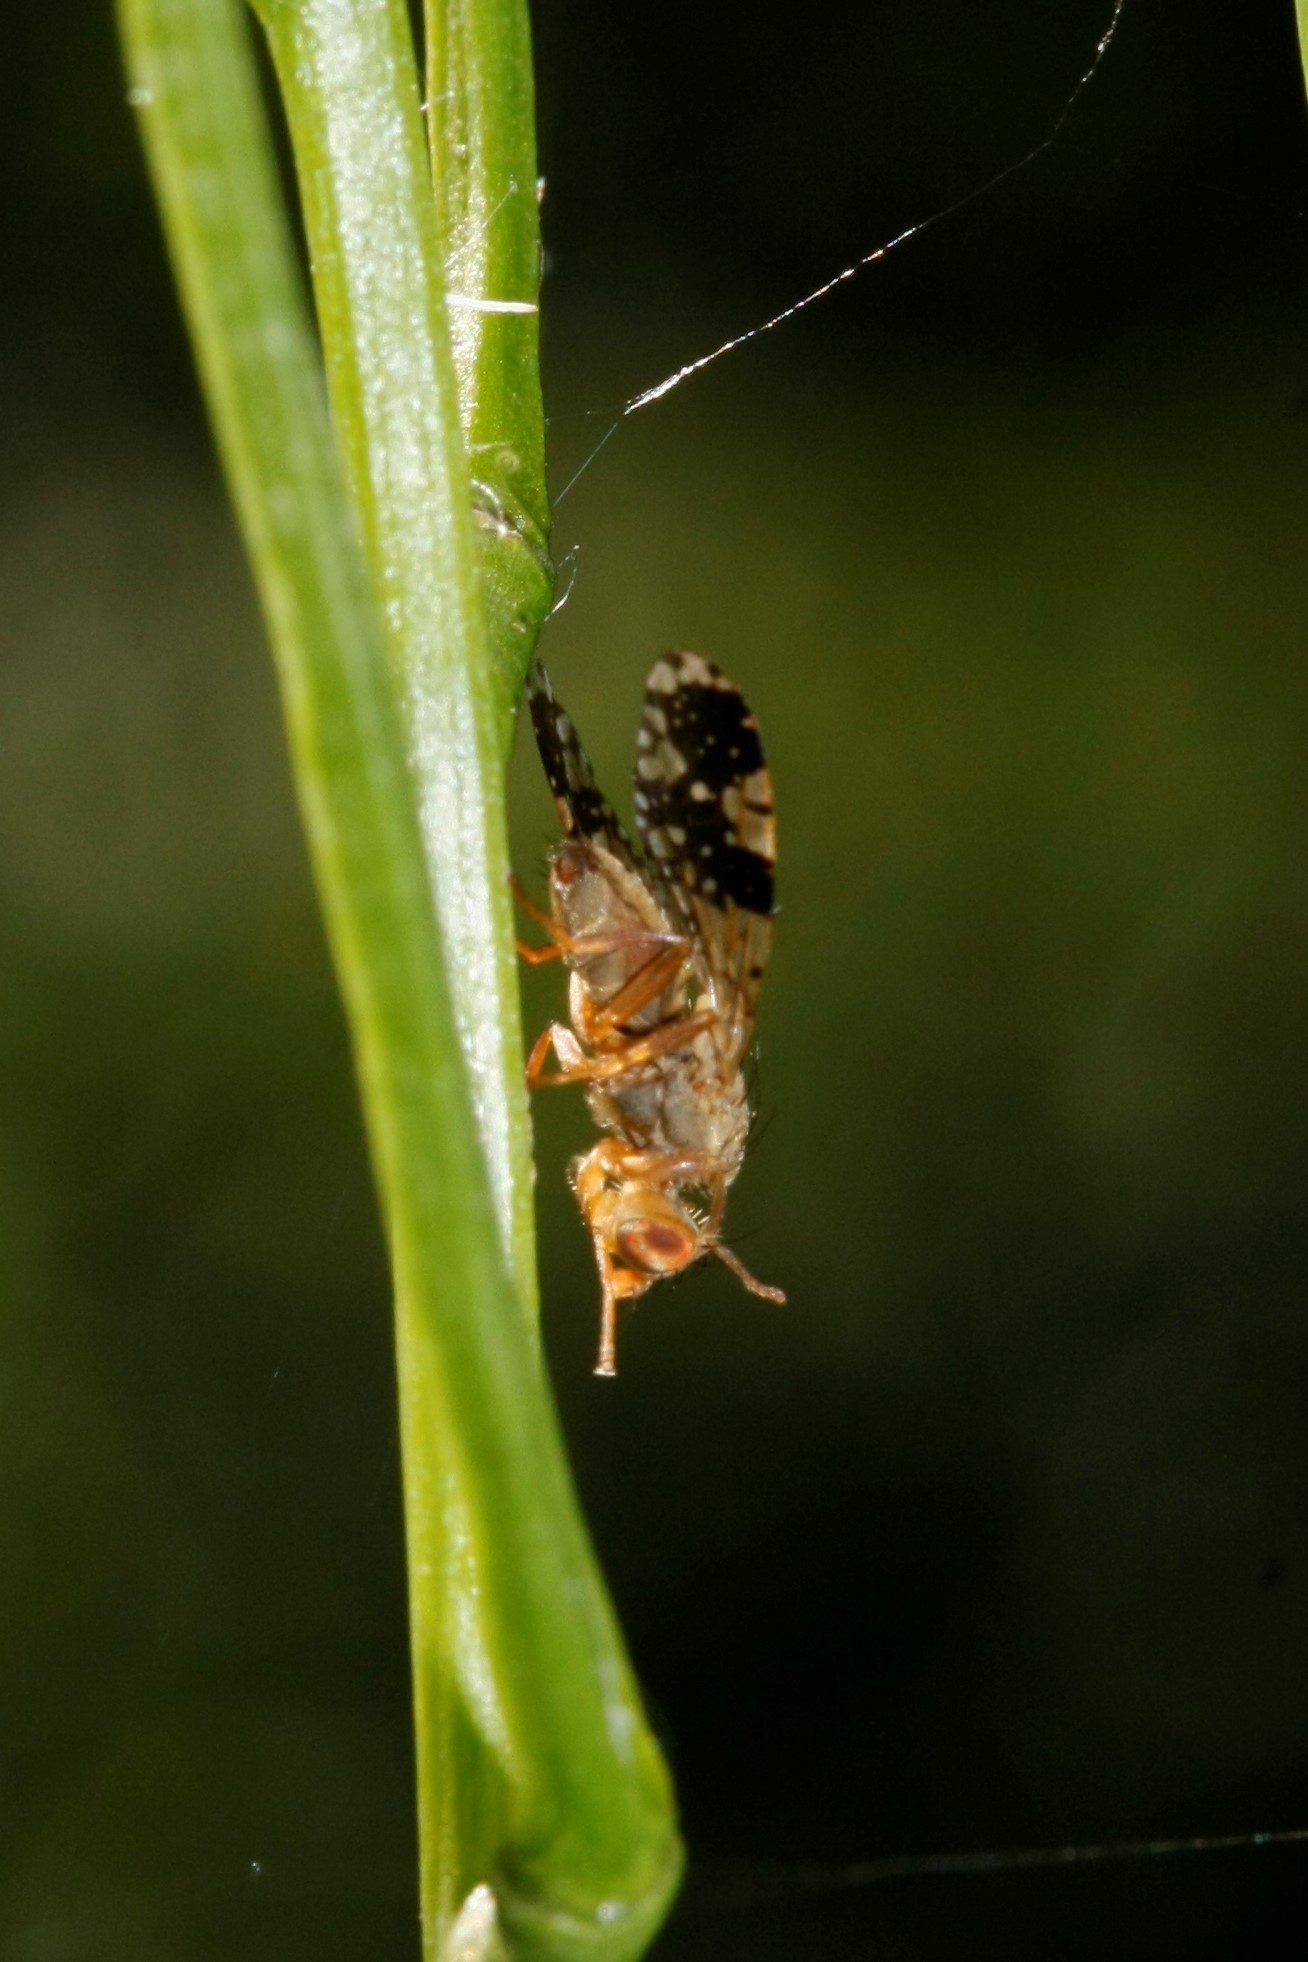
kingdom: Animalia
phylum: Arthropoda
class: Insecta
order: Diptera
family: Tephritidae
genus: Tephritis
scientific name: Tephritis bardanae
